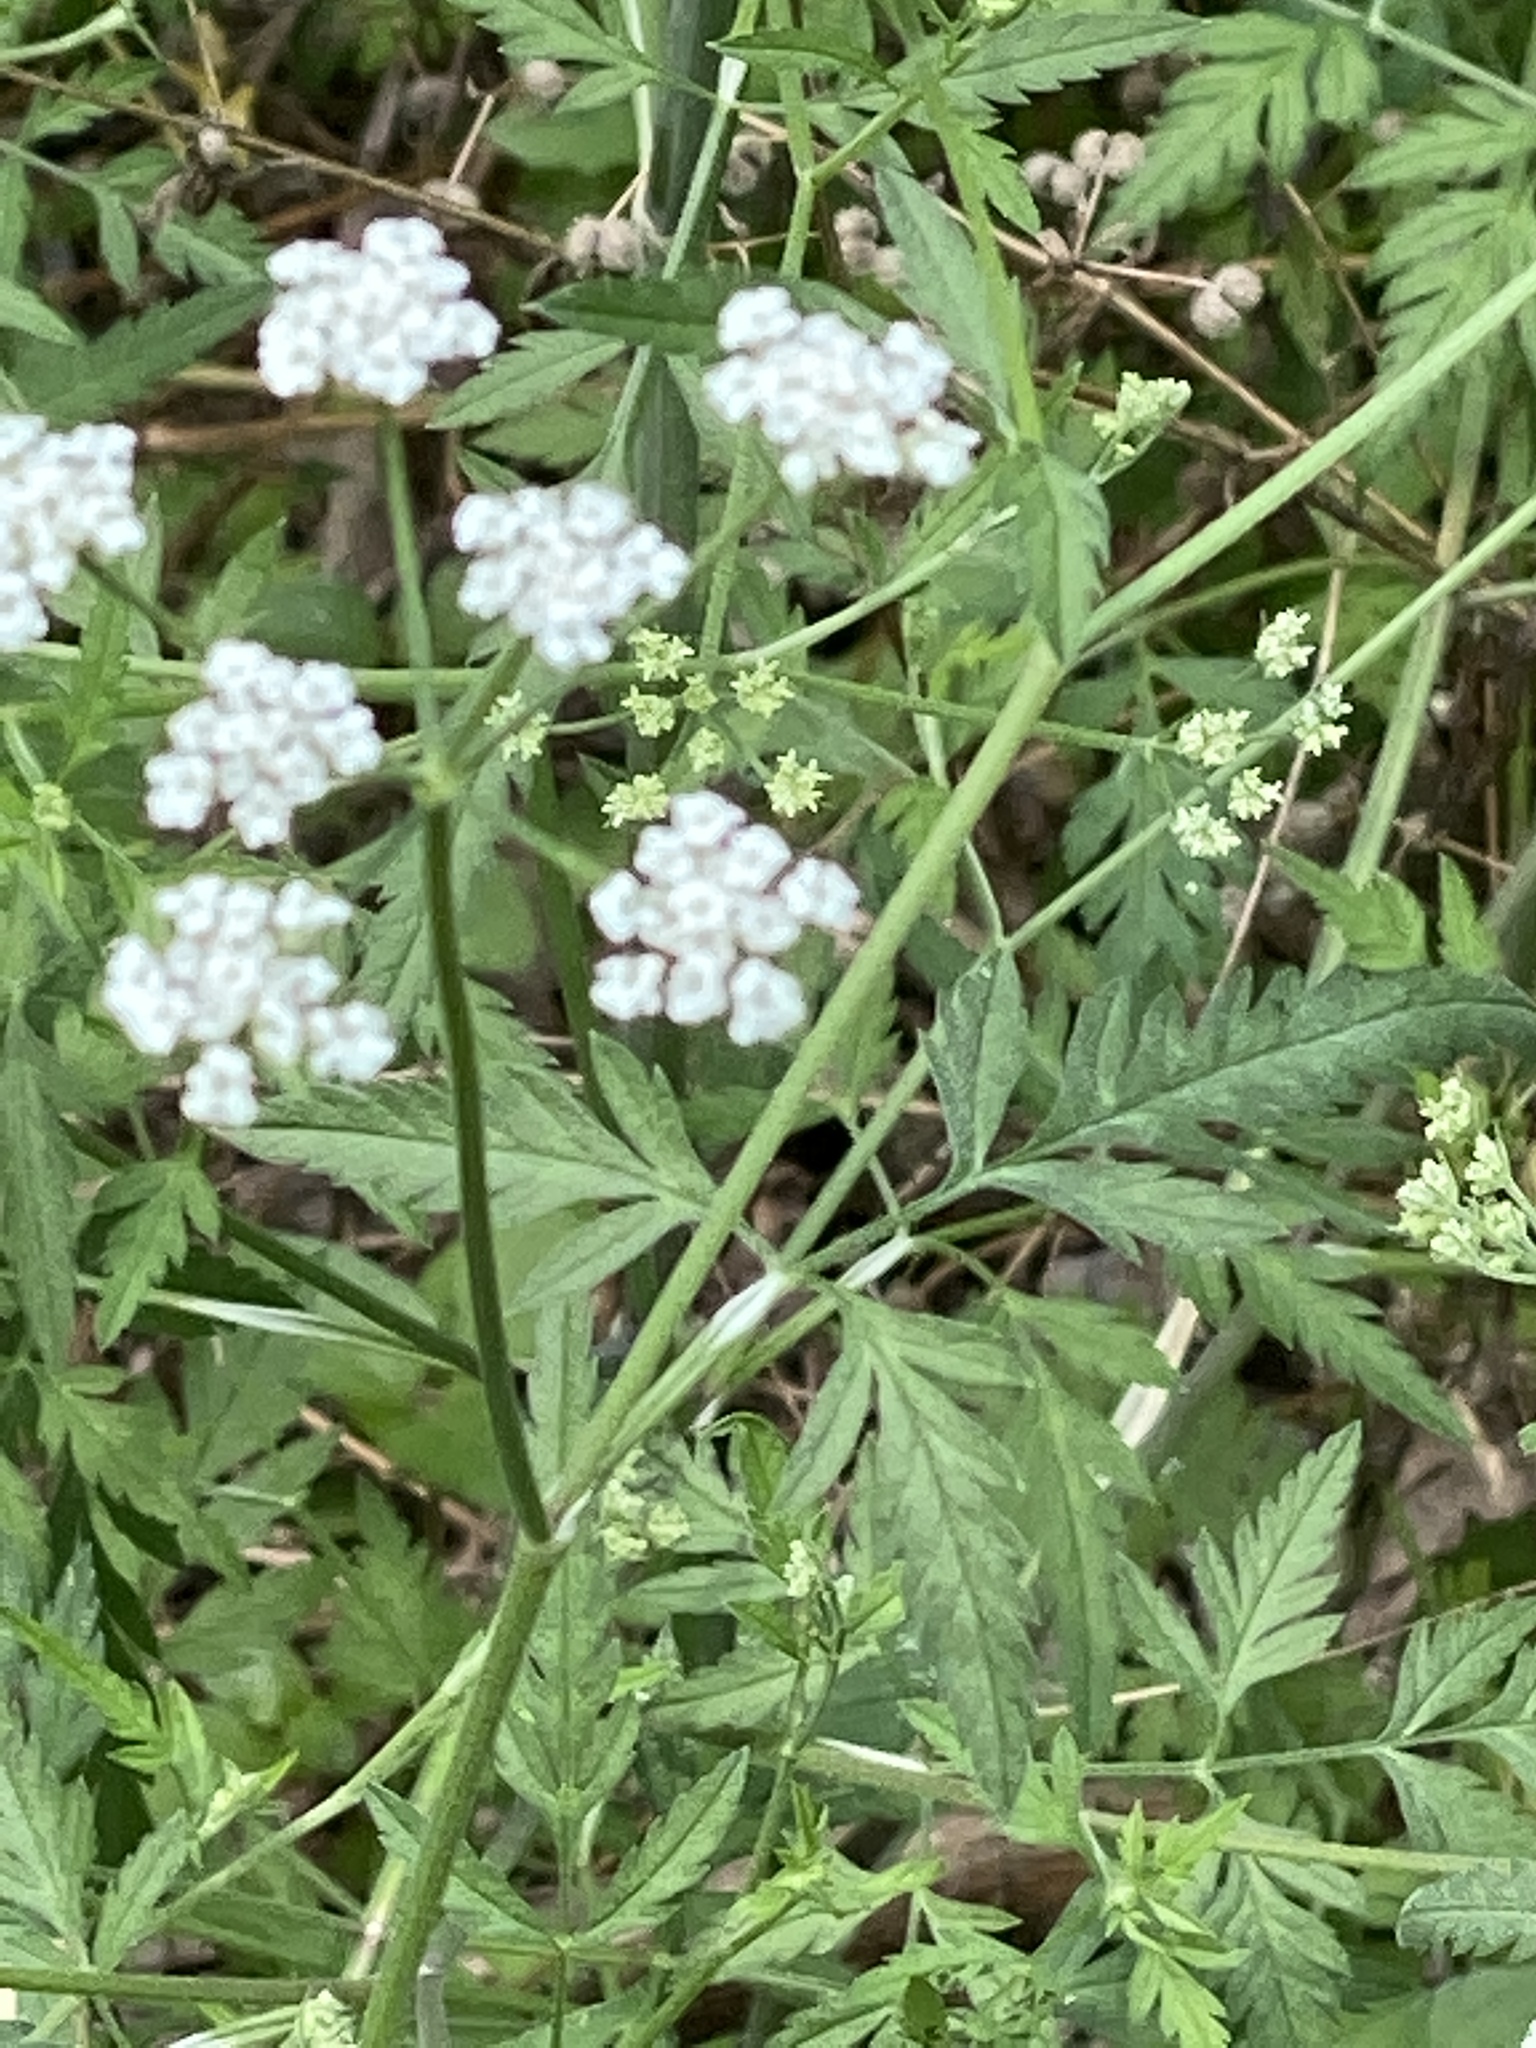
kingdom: Plantae
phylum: Tracheophyta
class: Magnoliopsida
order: Apiales
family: Apiaceae
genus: Torilis
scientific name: Torilis arvensis
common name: Spreading hedge-parsley
